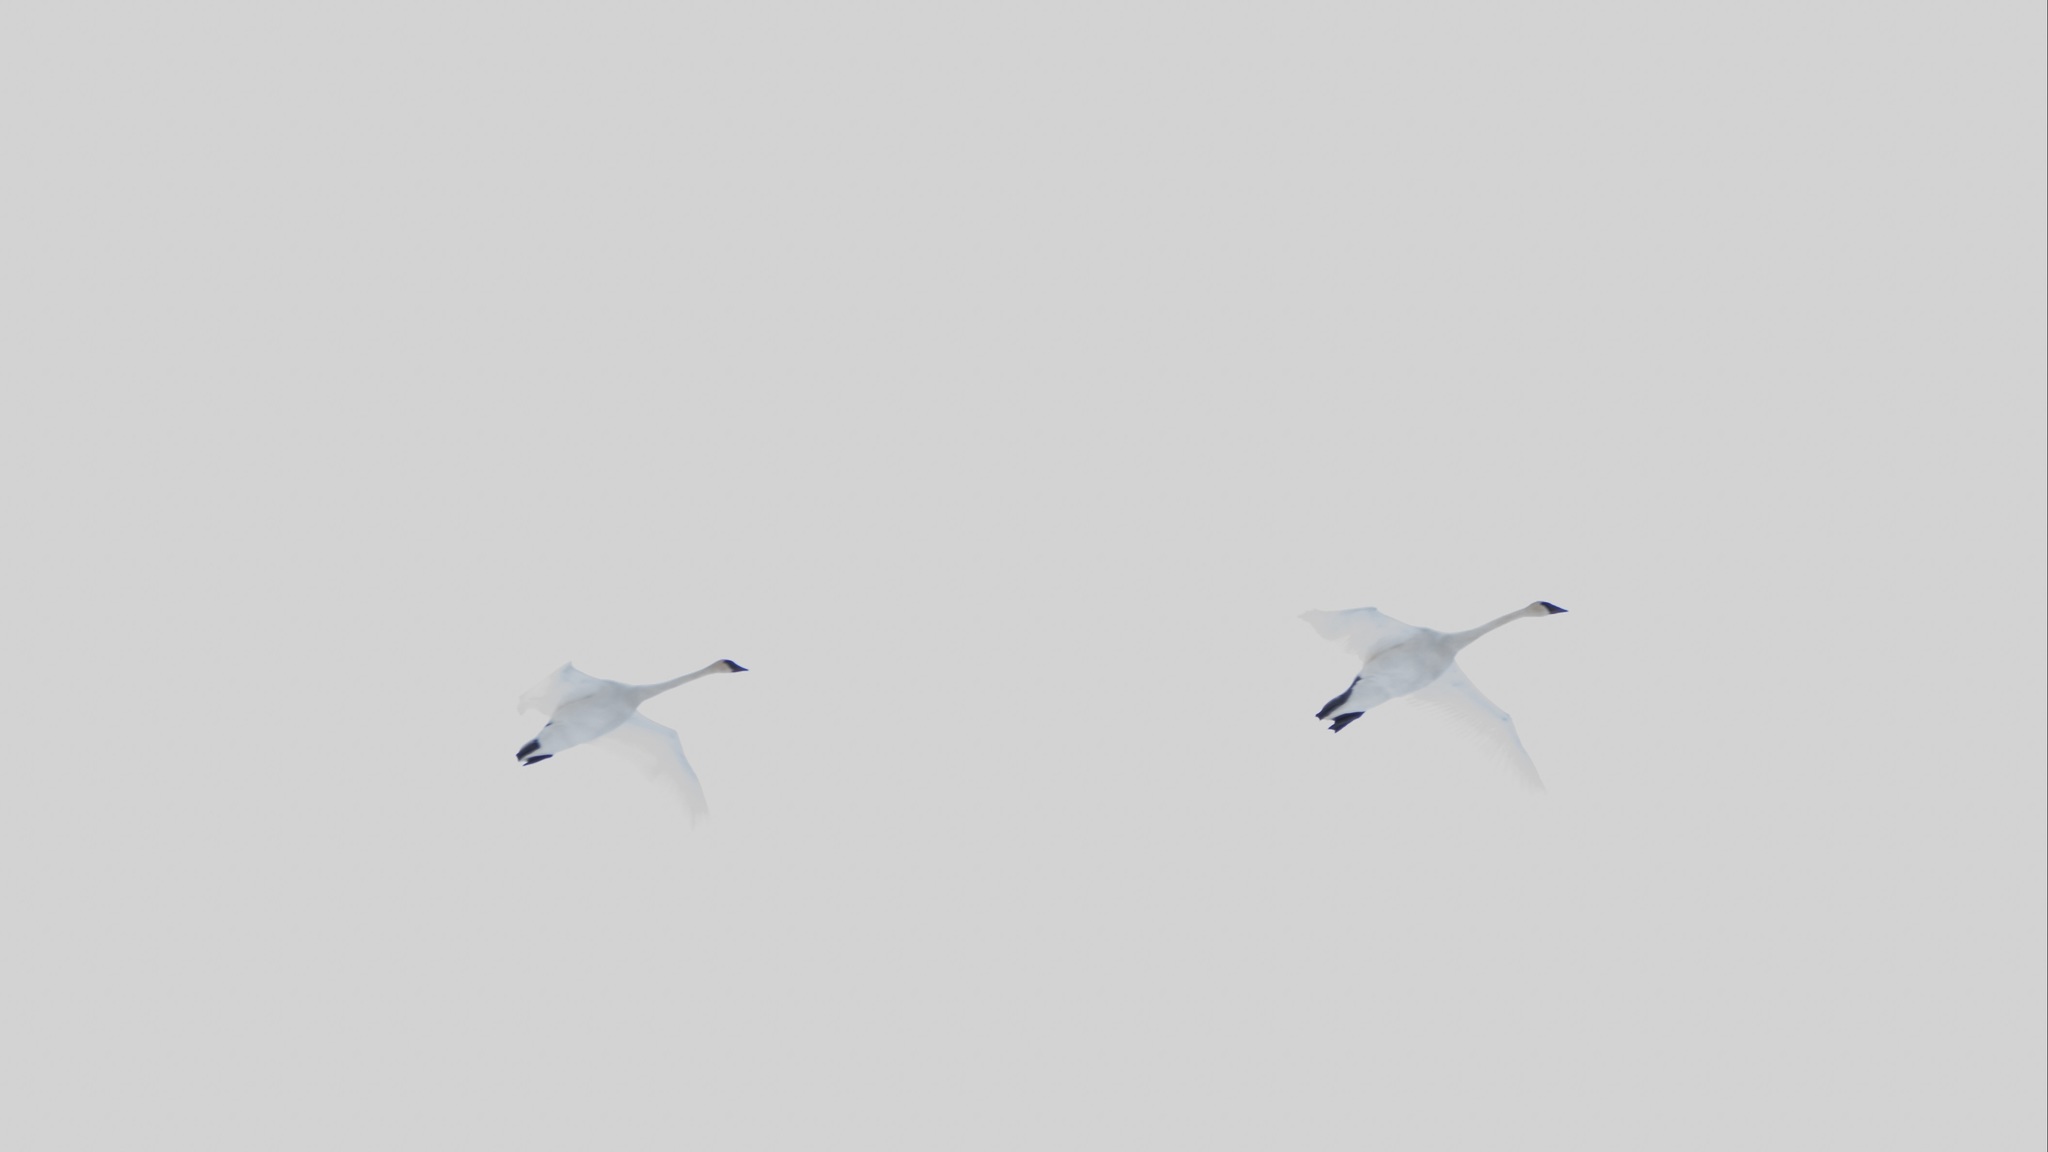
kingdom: Animalia
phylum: Chordata
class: Aves
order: Anseriformes
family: Anatidae
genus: Cygnus
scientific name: Cygnus buccinator
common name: Trumpeter swan
